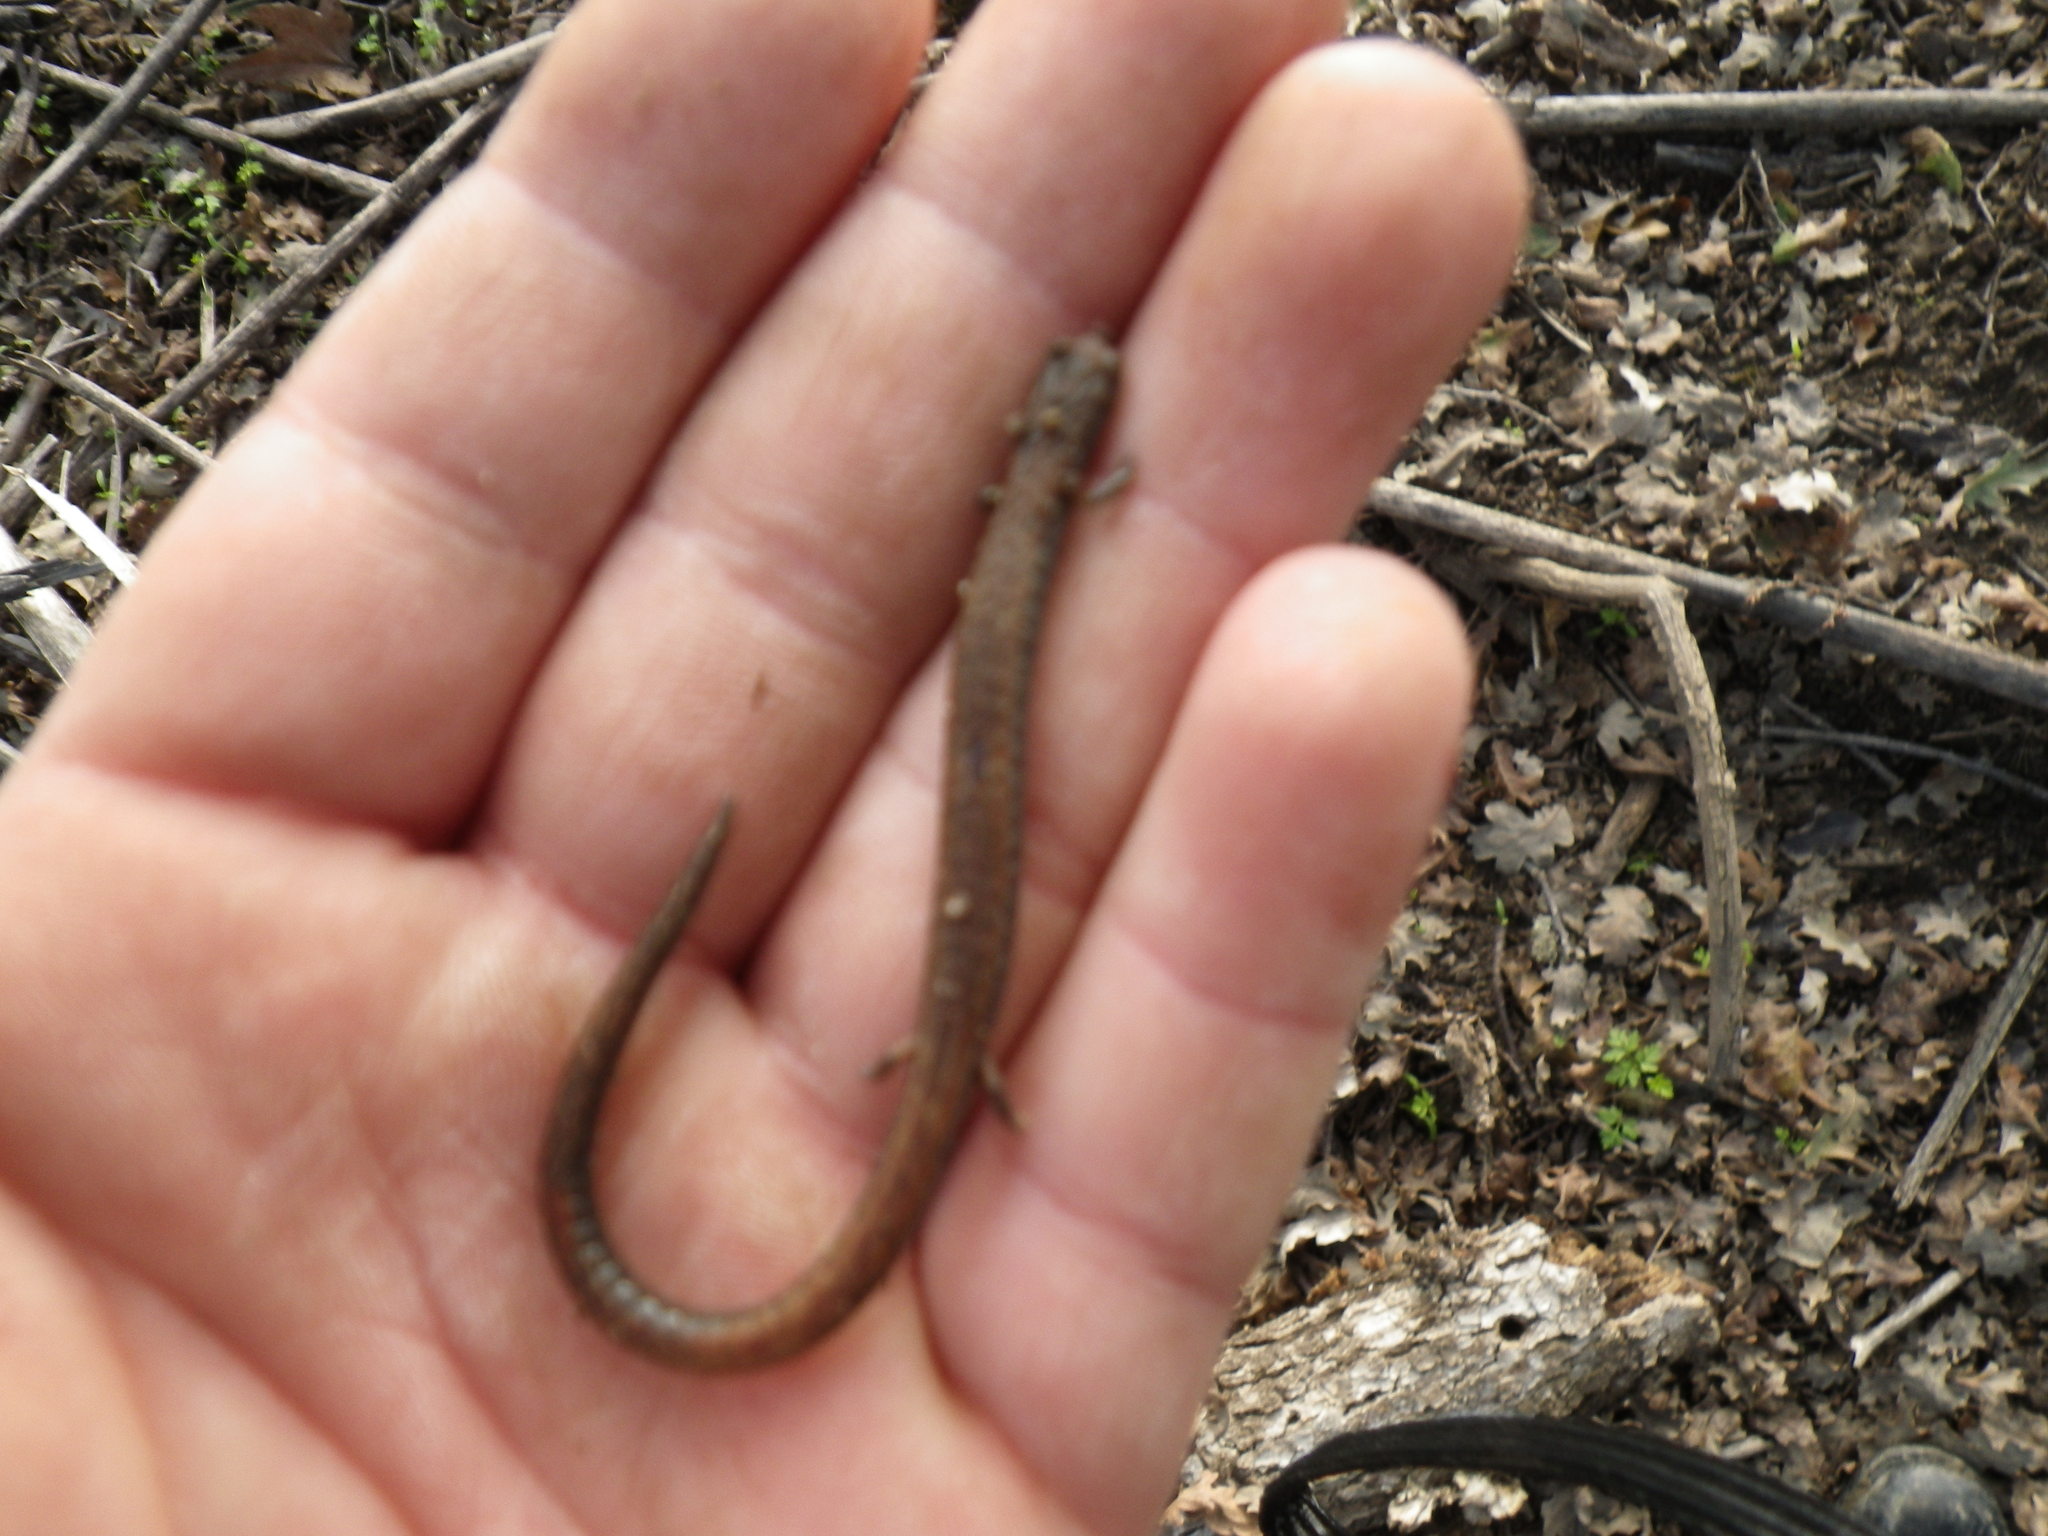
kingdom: Animalia
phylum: Chordata
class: Amphibia
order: Caudata
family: Plethodontidae
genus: Batrachoseps
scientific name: Batrachoseps attenuatus
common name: California slender salamander
